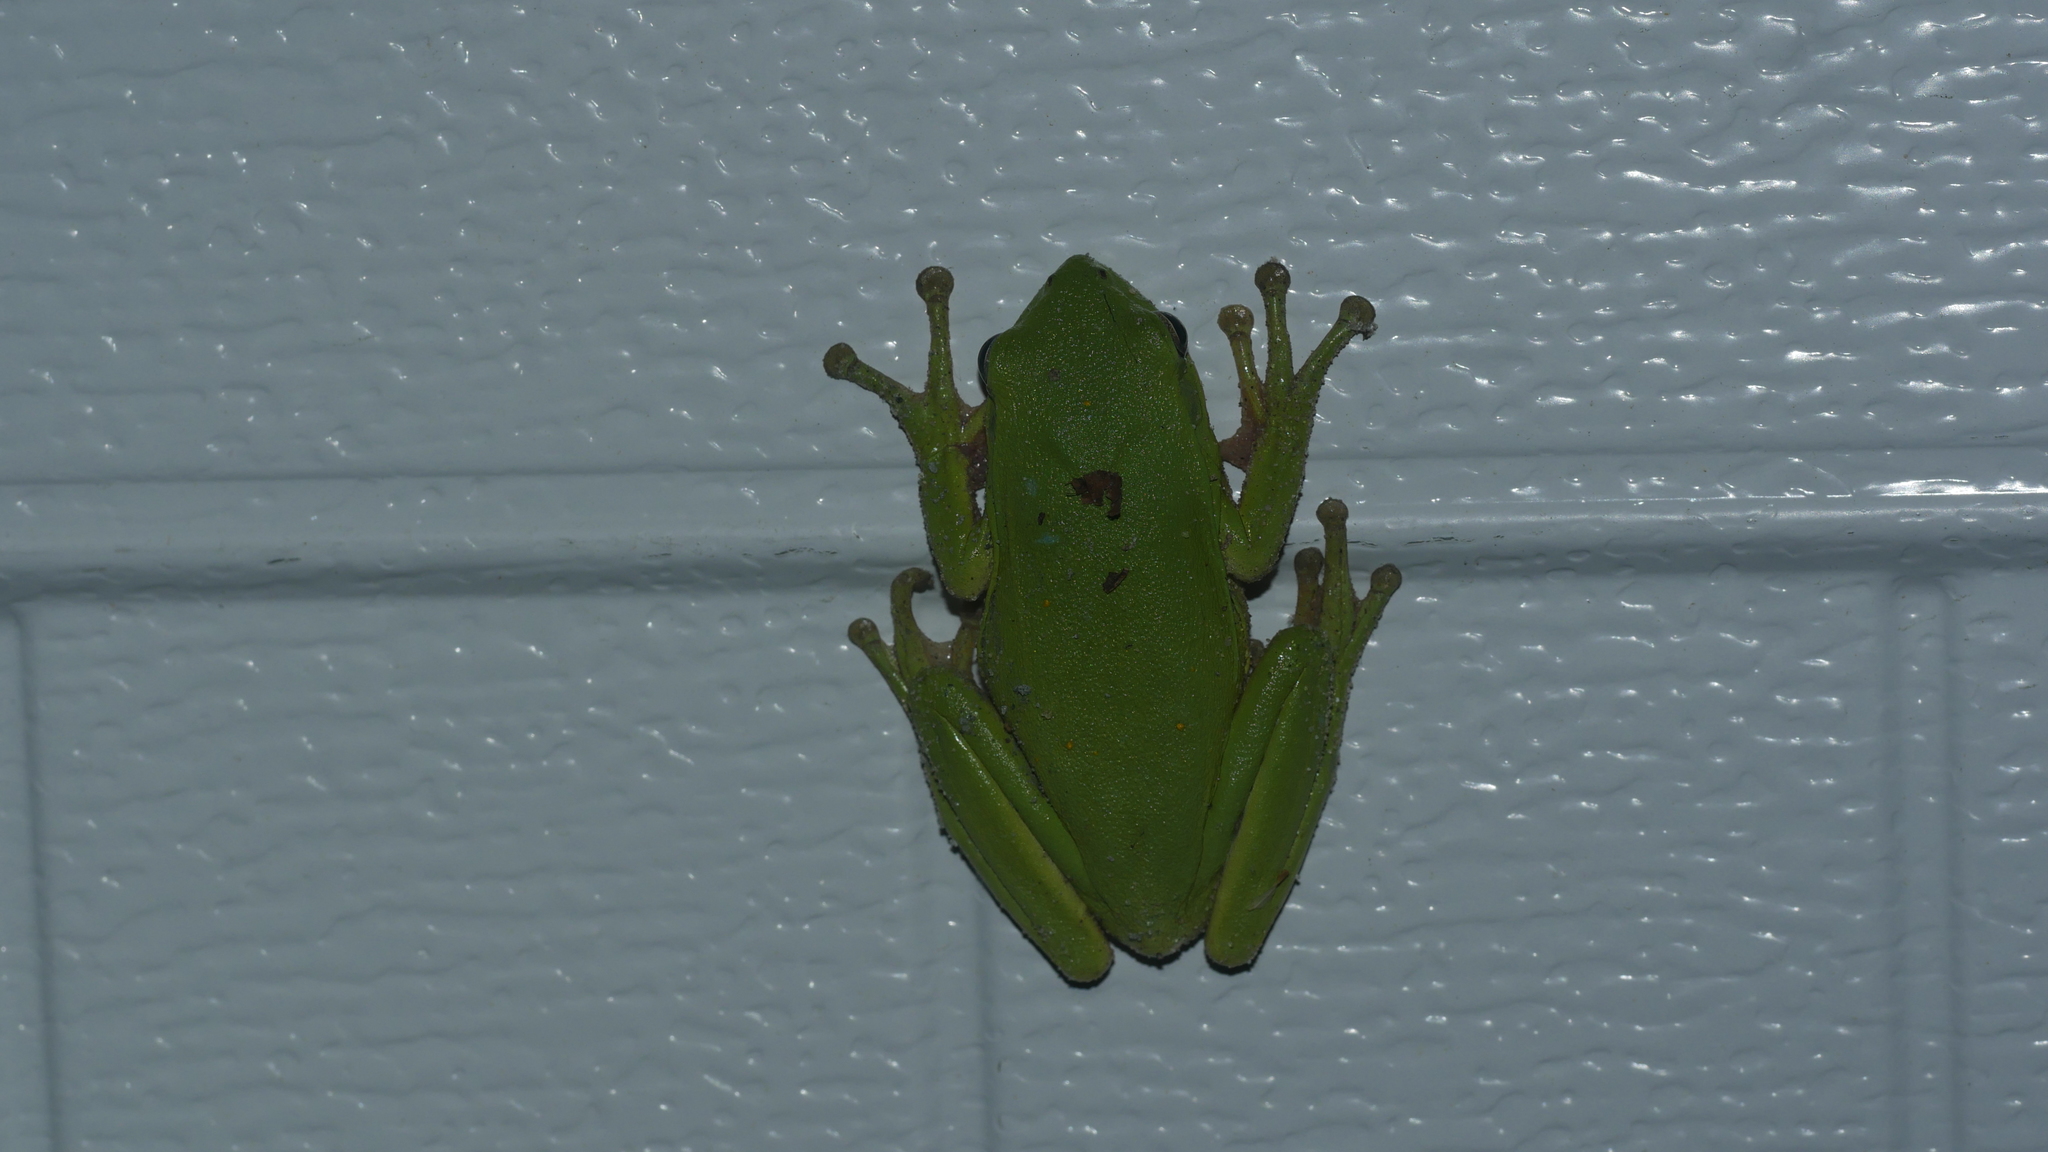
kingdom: Animalia
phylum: Chordata
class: Amphibia
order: Anura
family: Hylidae
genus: Dryophytes
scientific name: Dryophytes cinereus
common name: Green treefrog
